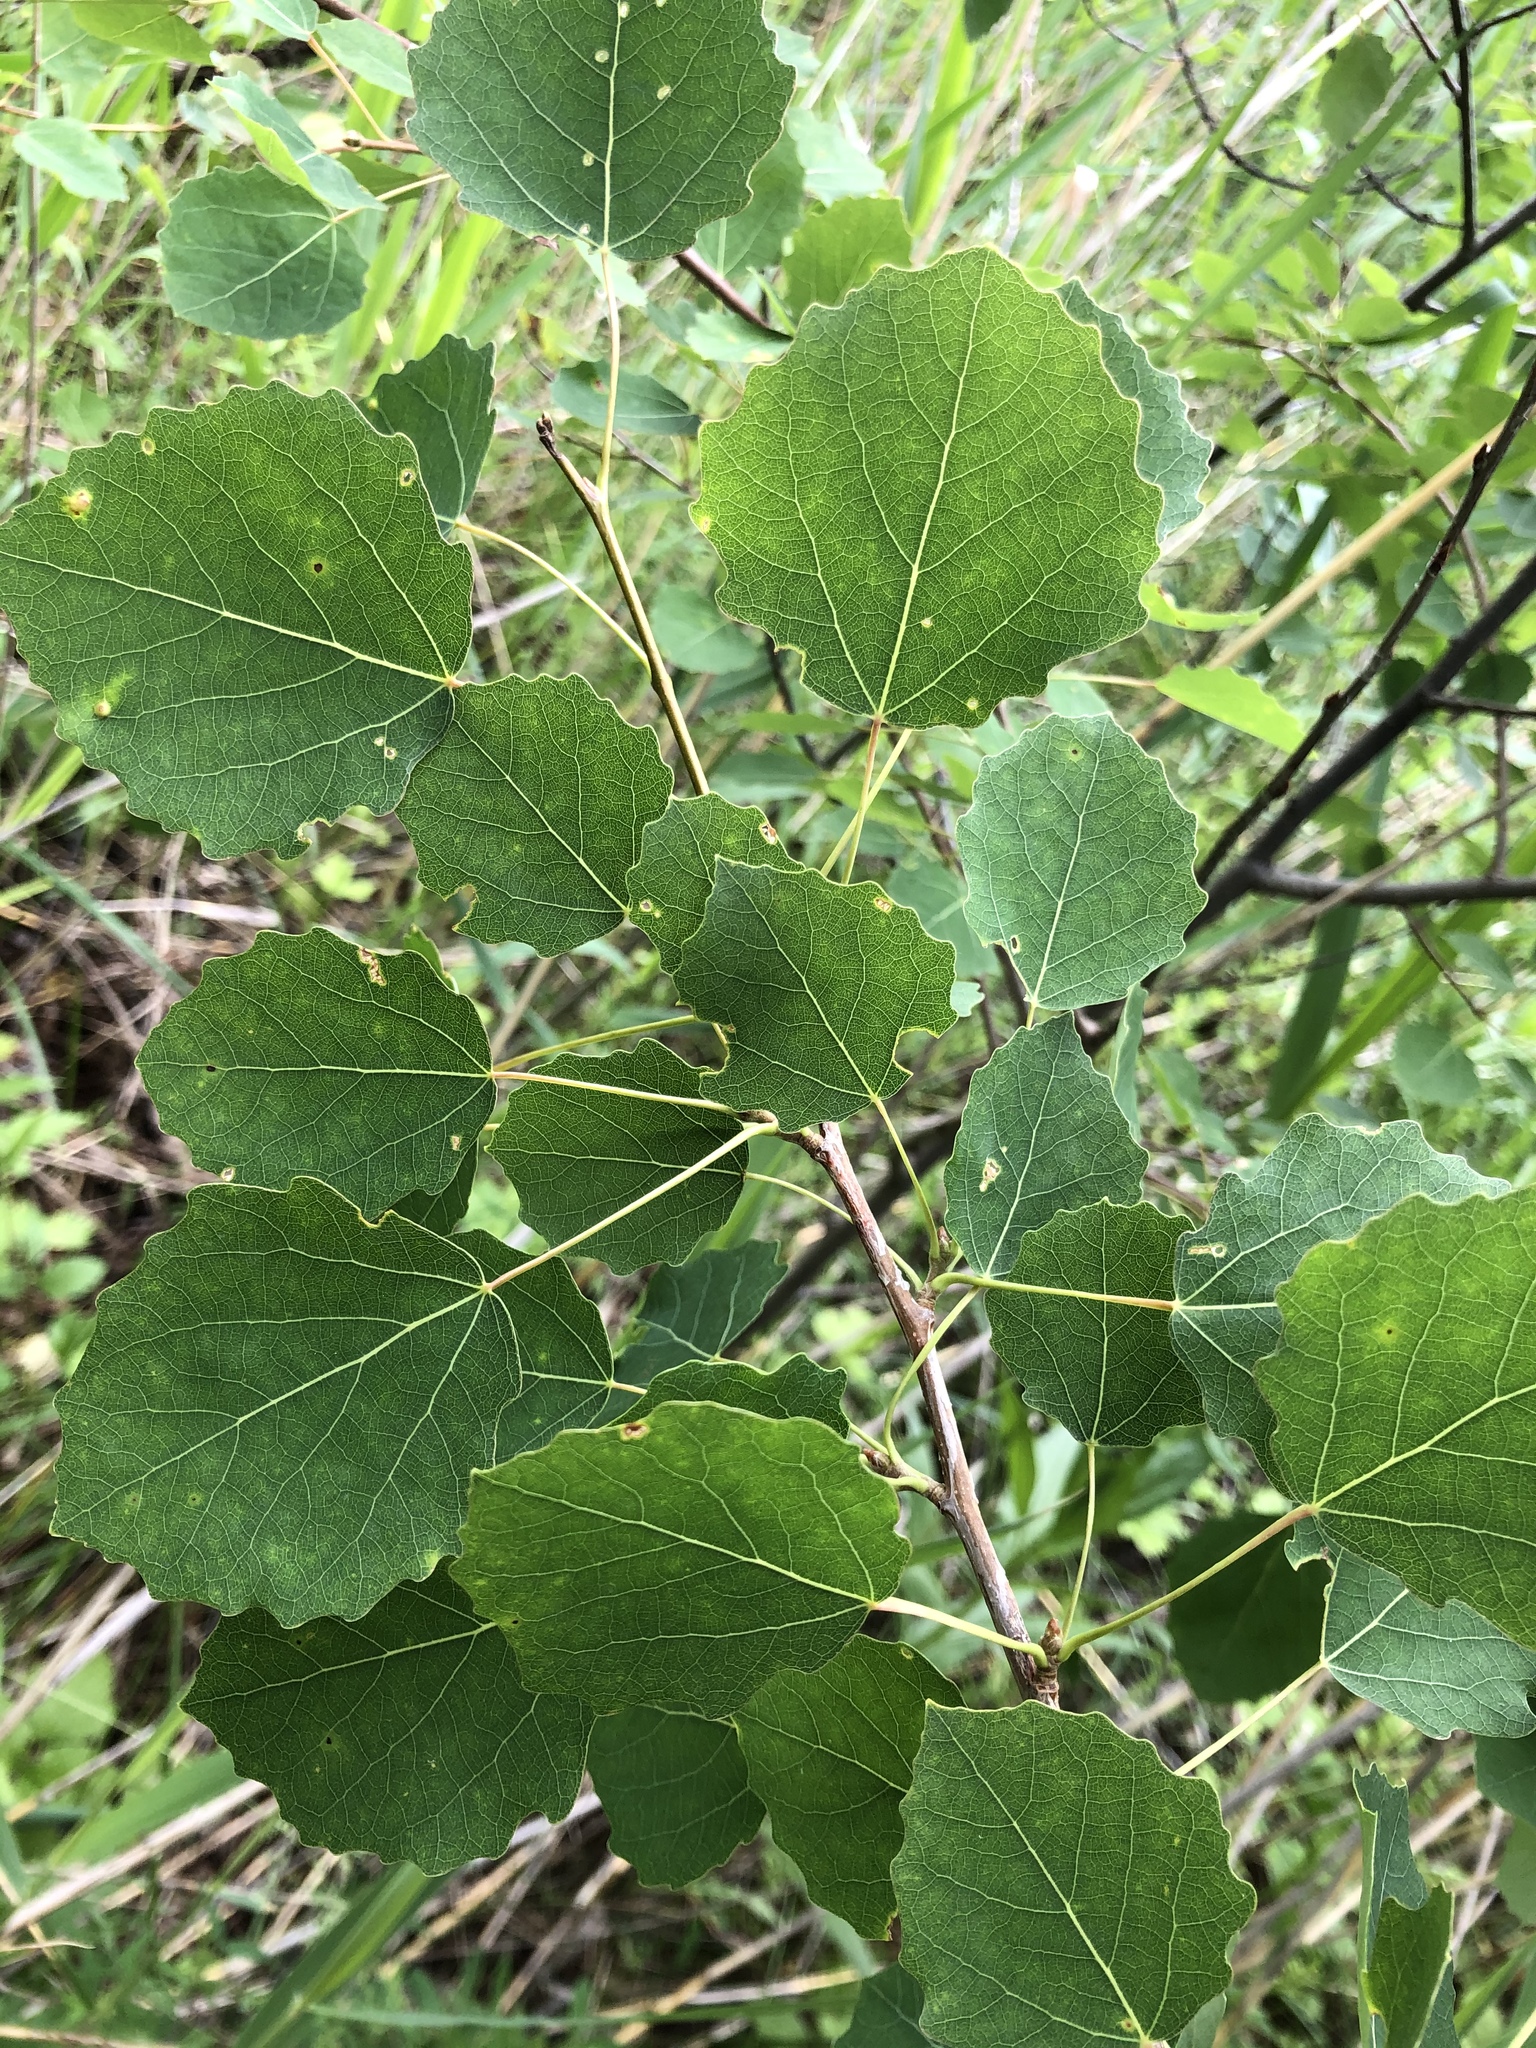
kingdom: Plantae
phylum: Tracheophyta
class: Magnoliopsida
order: Malpighiales
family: Salicaceae
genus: Populus
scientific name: Populus tremula
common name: European aspen
